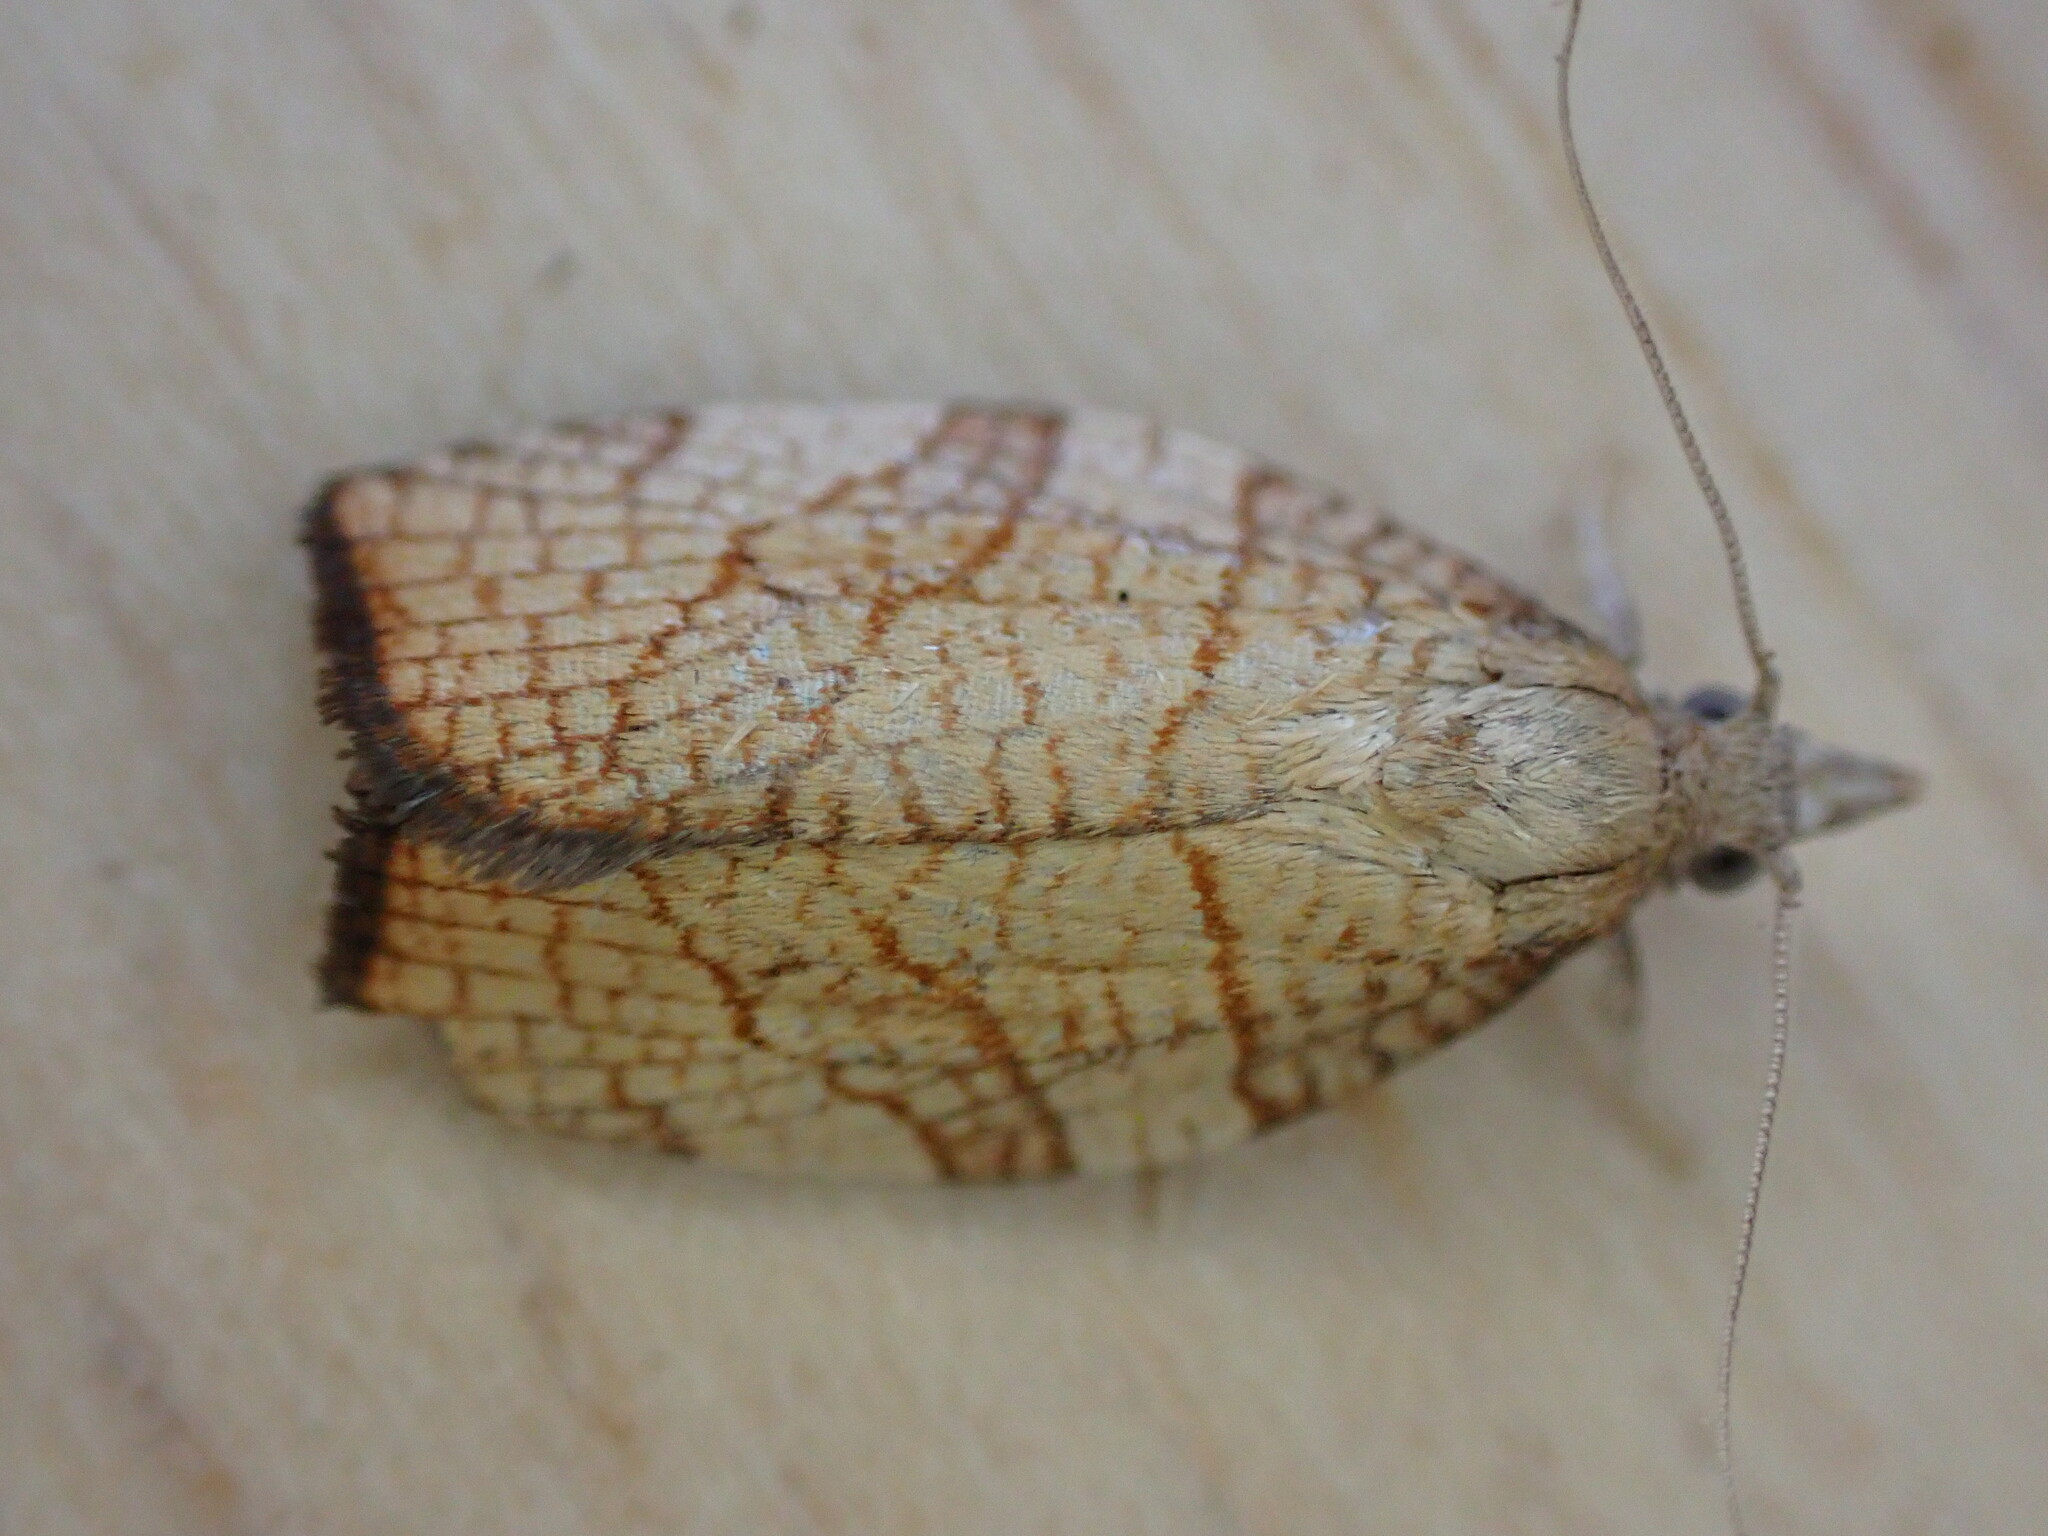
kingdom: Animalia
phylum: Arthropoda
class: Insecta
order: Lepidoptera
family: Tortricidae
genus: Pandemis
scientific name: Pandemis corylana
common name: Chequered fruit-tree tortrix
